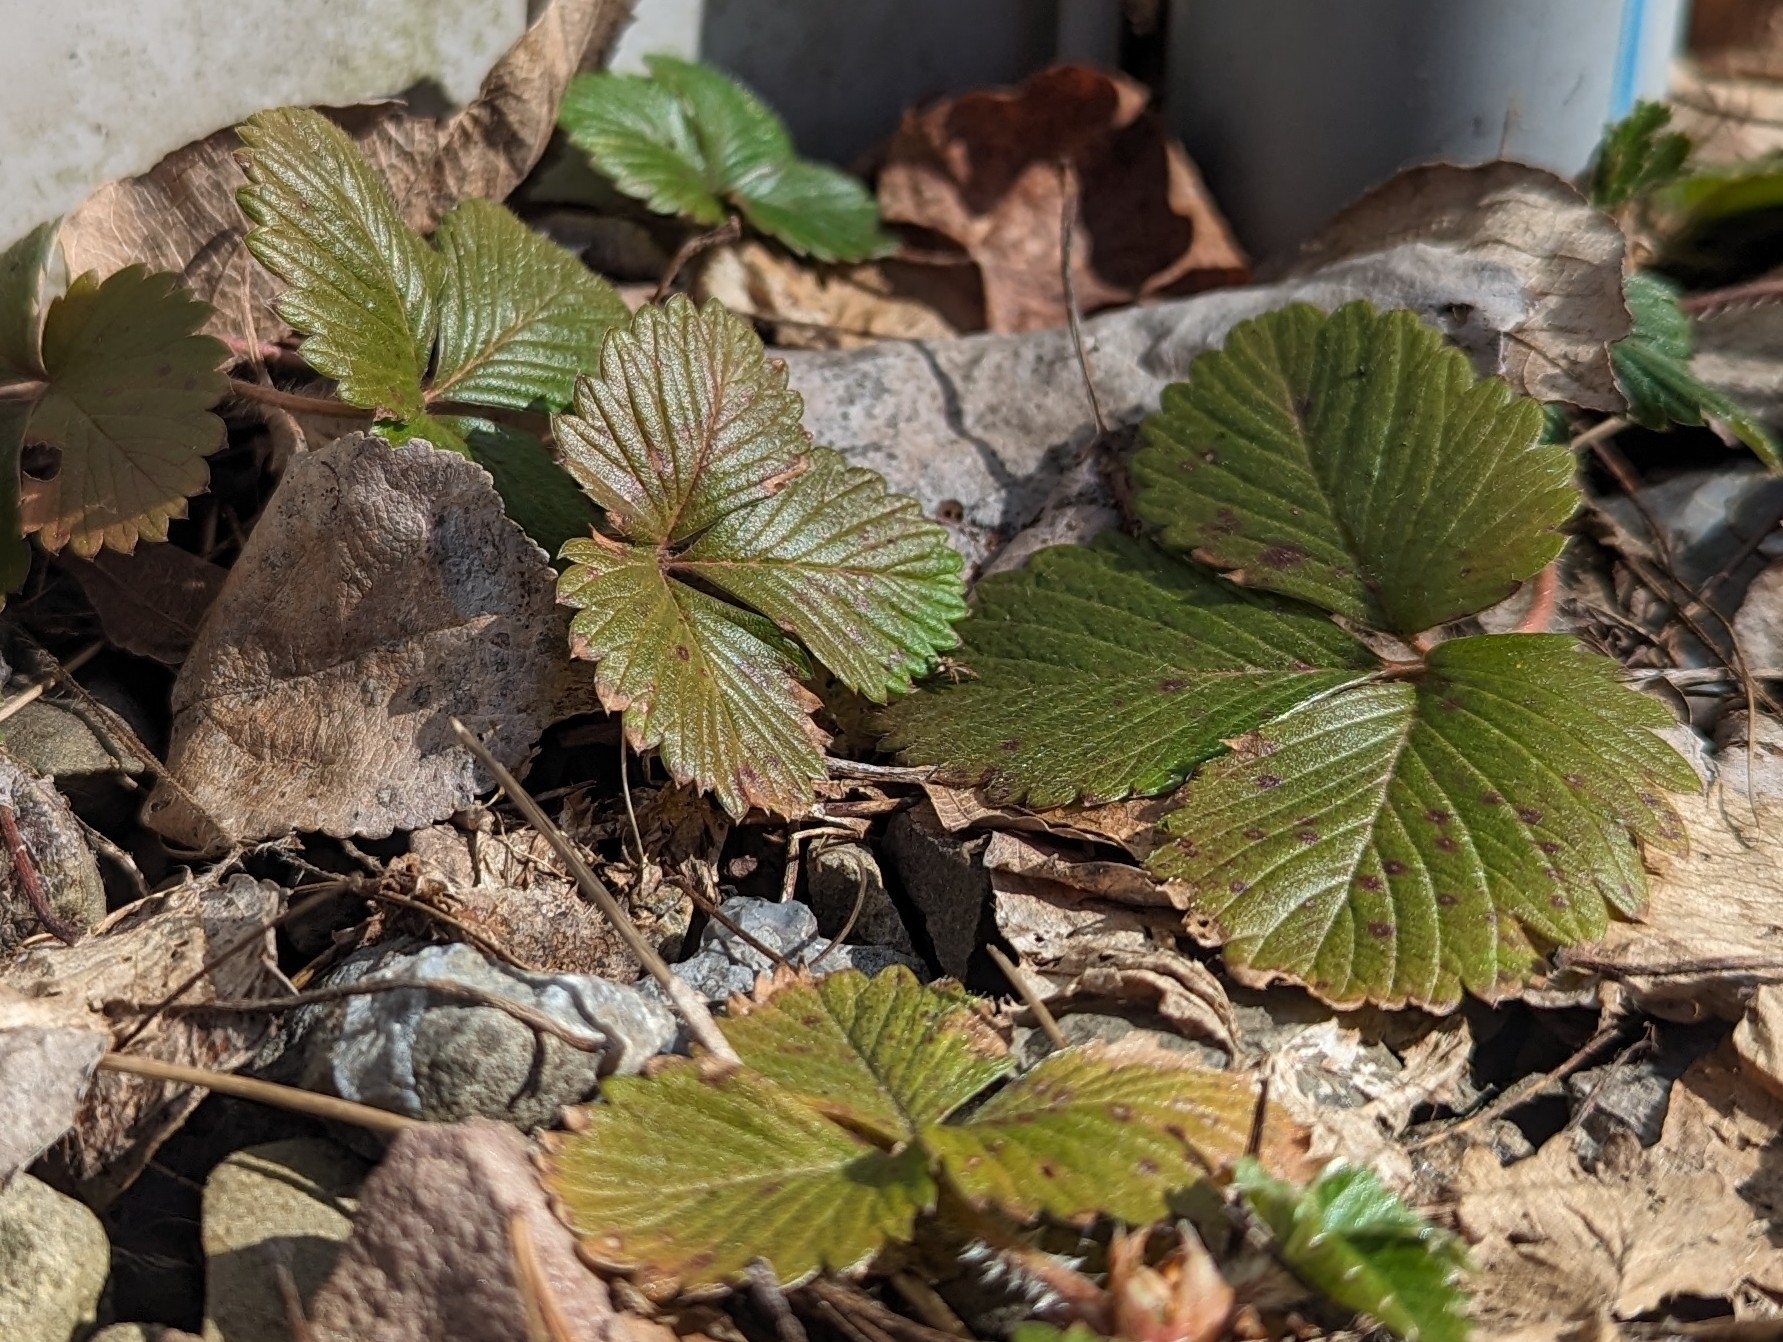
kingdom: Plantae
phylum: Tracheophyta
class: Magnoliopsida
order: Rosales
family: Rosaceae
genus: Fragaria
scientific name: Fragaria vesca
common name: Wild strawberry
